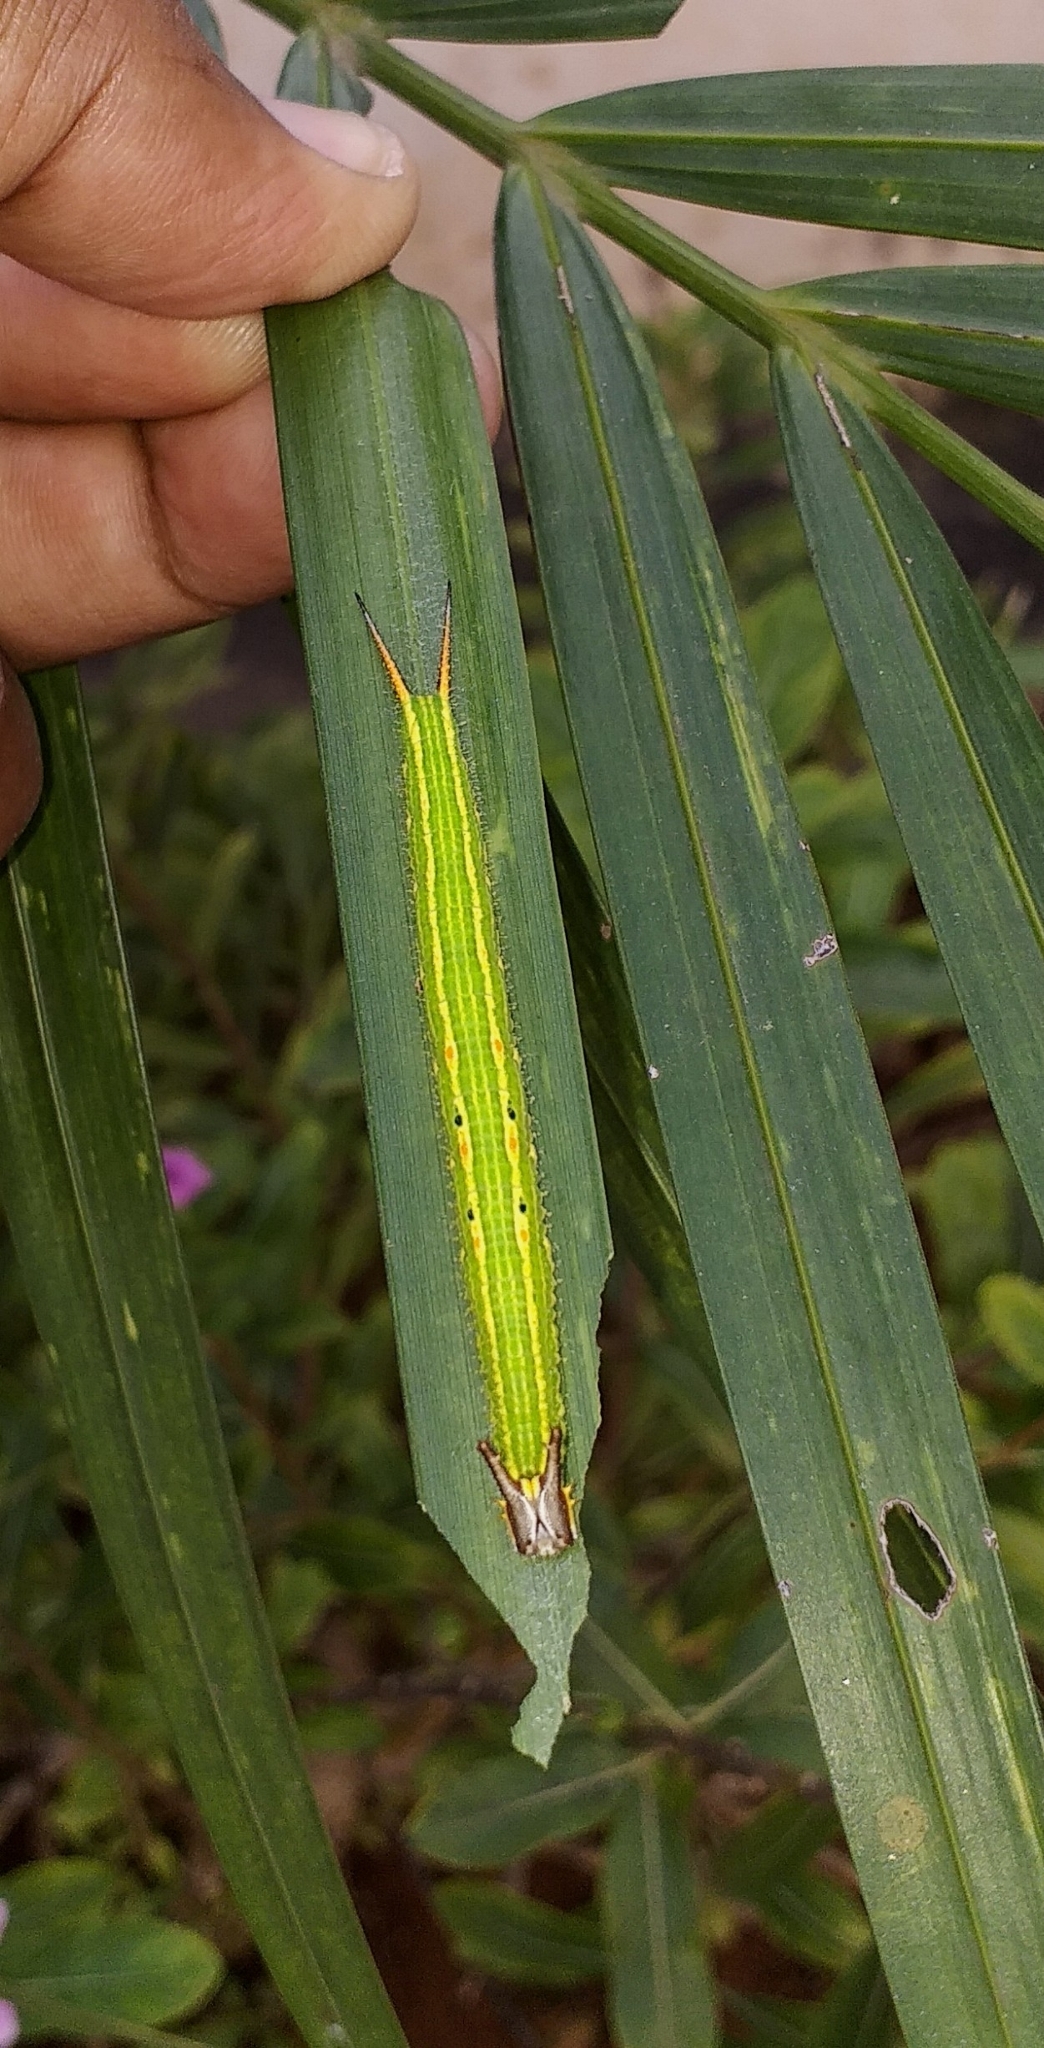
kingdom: Animalia
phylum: Arthropoda
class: Insecta
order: Lepidoptera
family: Nymphalidae
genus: Elymnias
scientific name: Elymnias caudata
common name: Tailed palmfly
